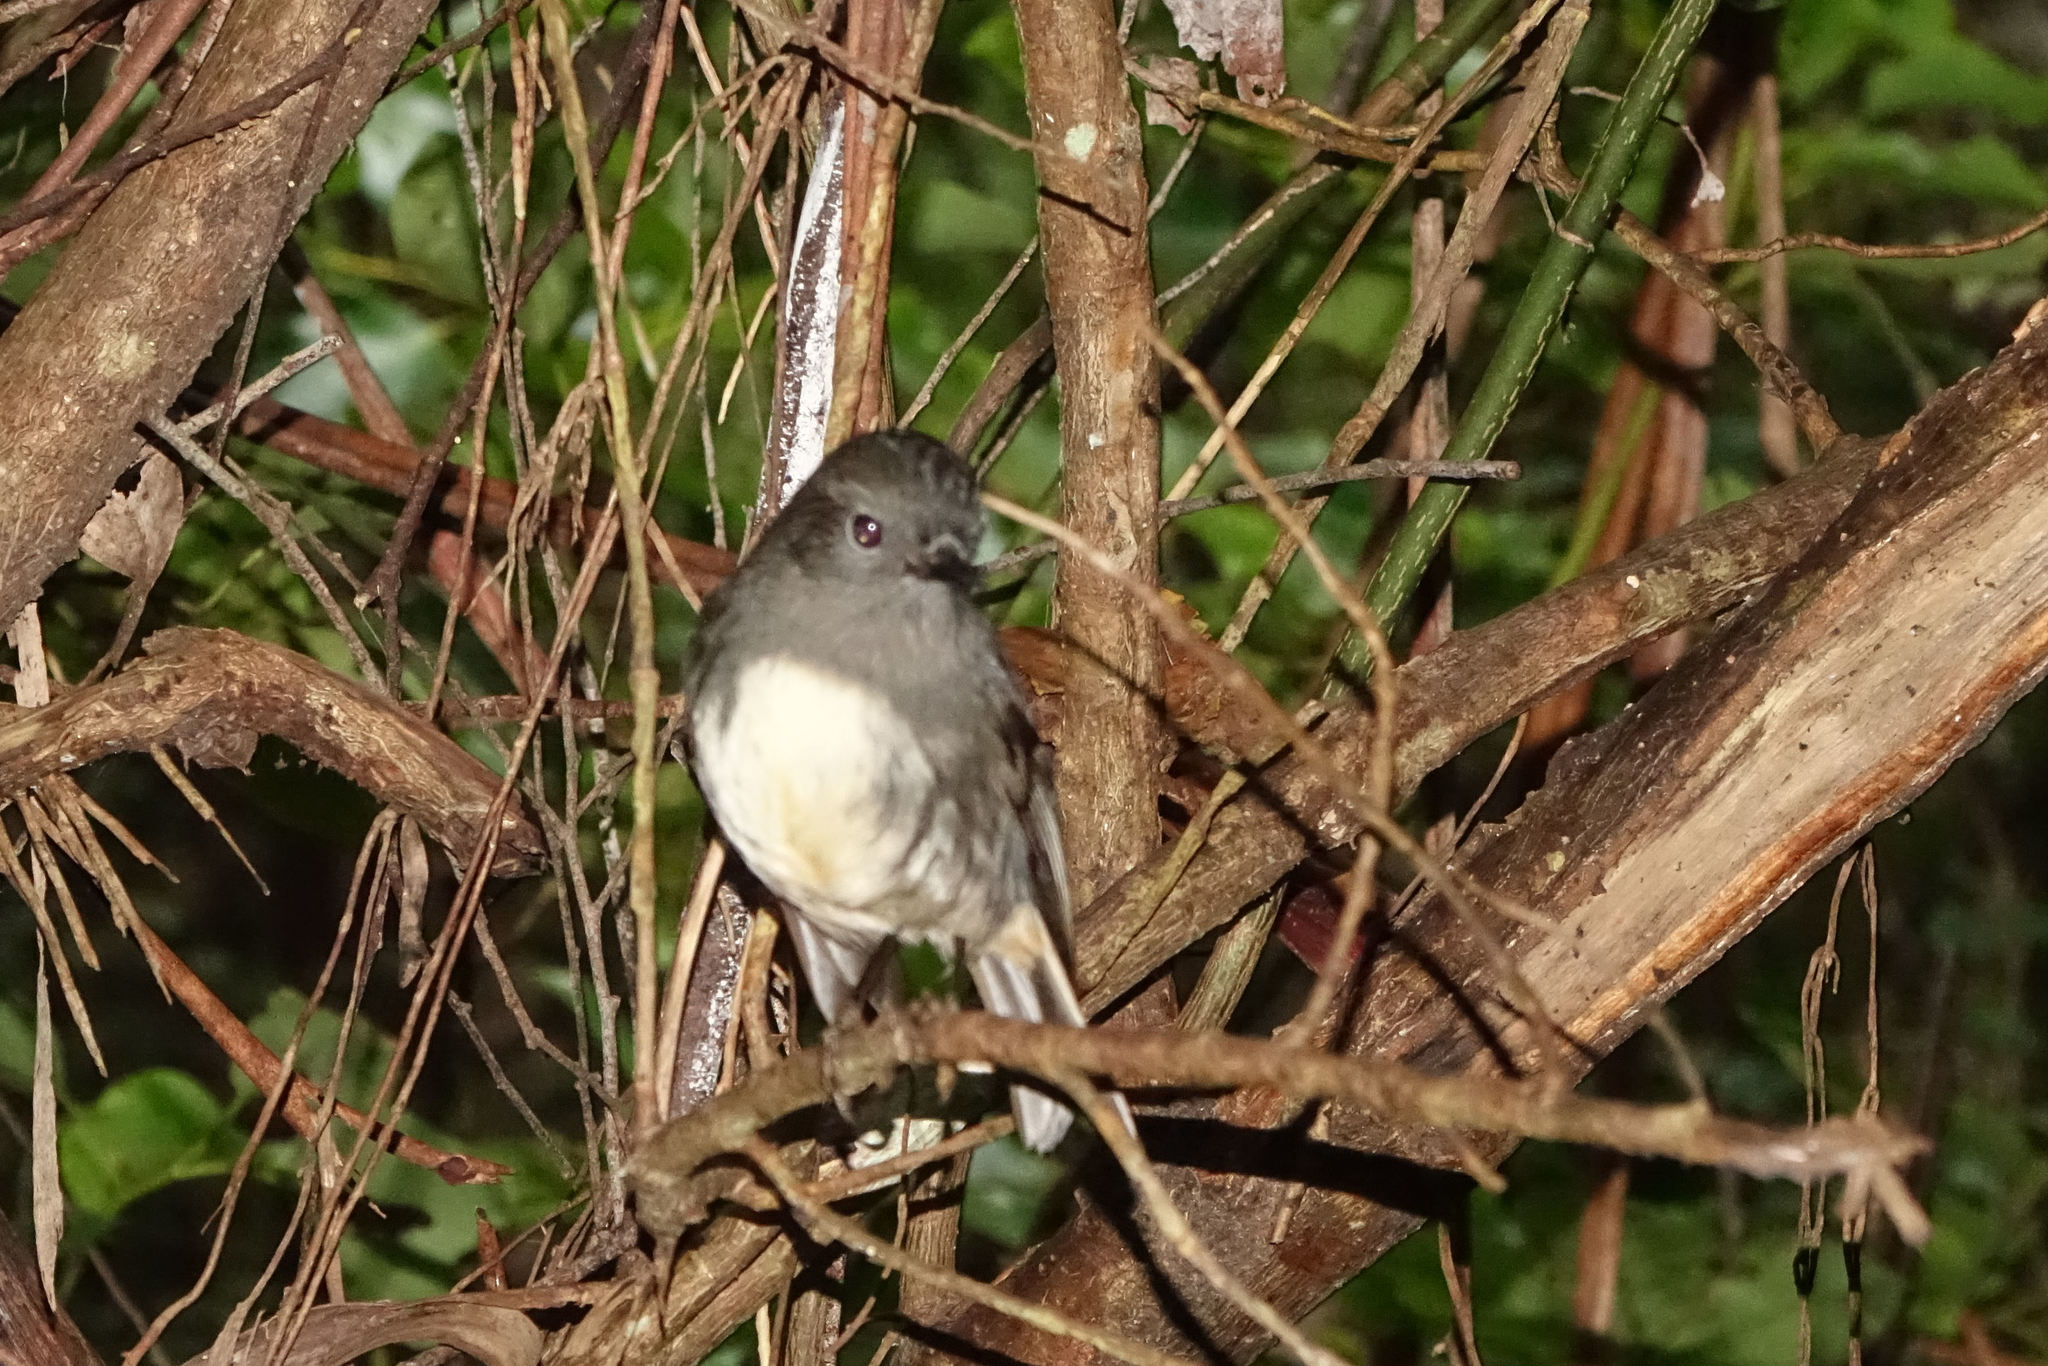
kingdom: Animalia
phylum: Chordata
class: Aves
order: Passeriformes
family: Petroicidae
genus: Petroica
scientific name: Petroica australis
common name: New zealand robin
